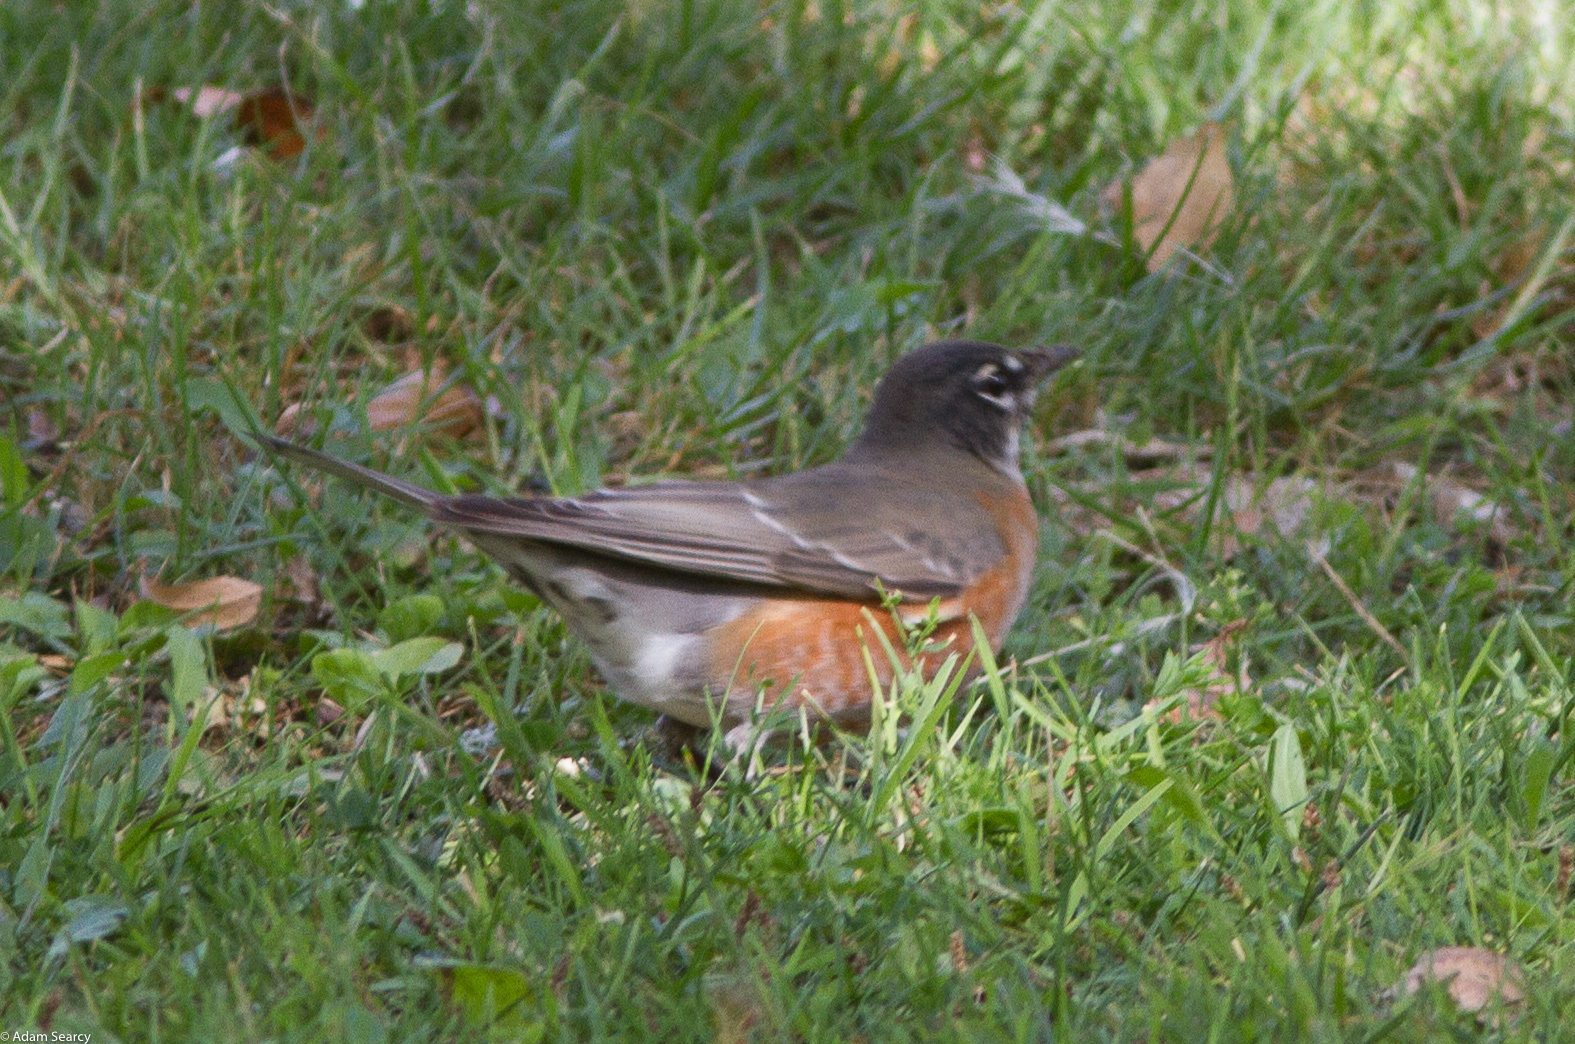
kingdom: Animalia
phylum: Chordata
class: Aves
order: Passeriformes
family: Turdidae
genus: Turdus
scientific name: Turdus migratorius
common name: American robin
